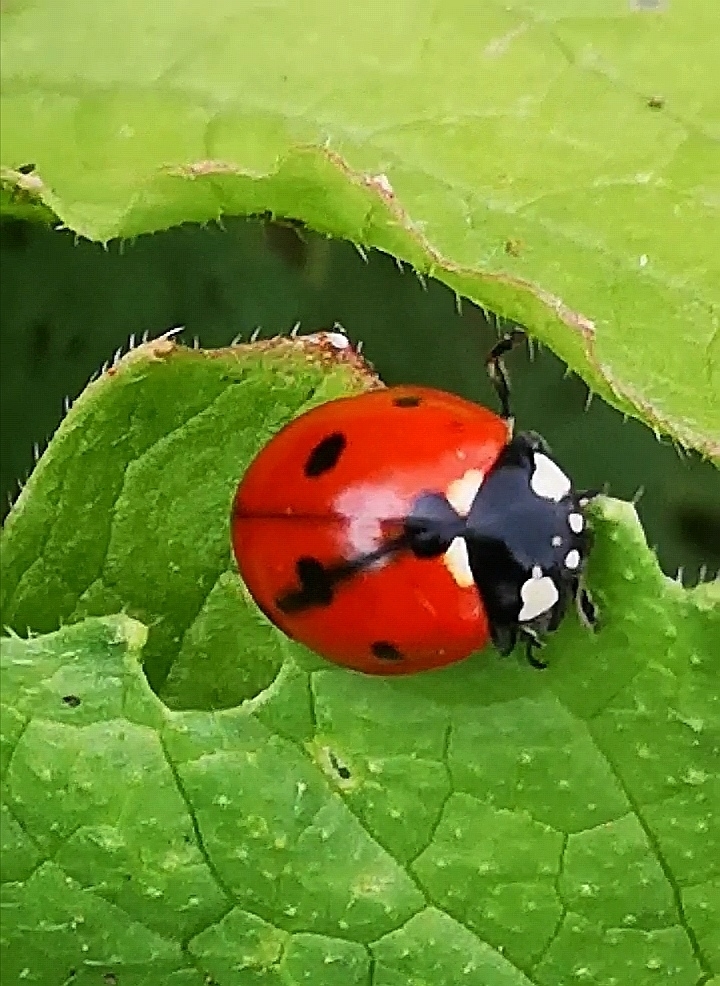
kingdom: Animalia
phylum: Arthropoda
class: Insecta
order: Coleoptera
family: Coccinellidae
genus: Coccinella
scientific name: Coccinella septempunctata
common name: Sevenspotted lady beetle
